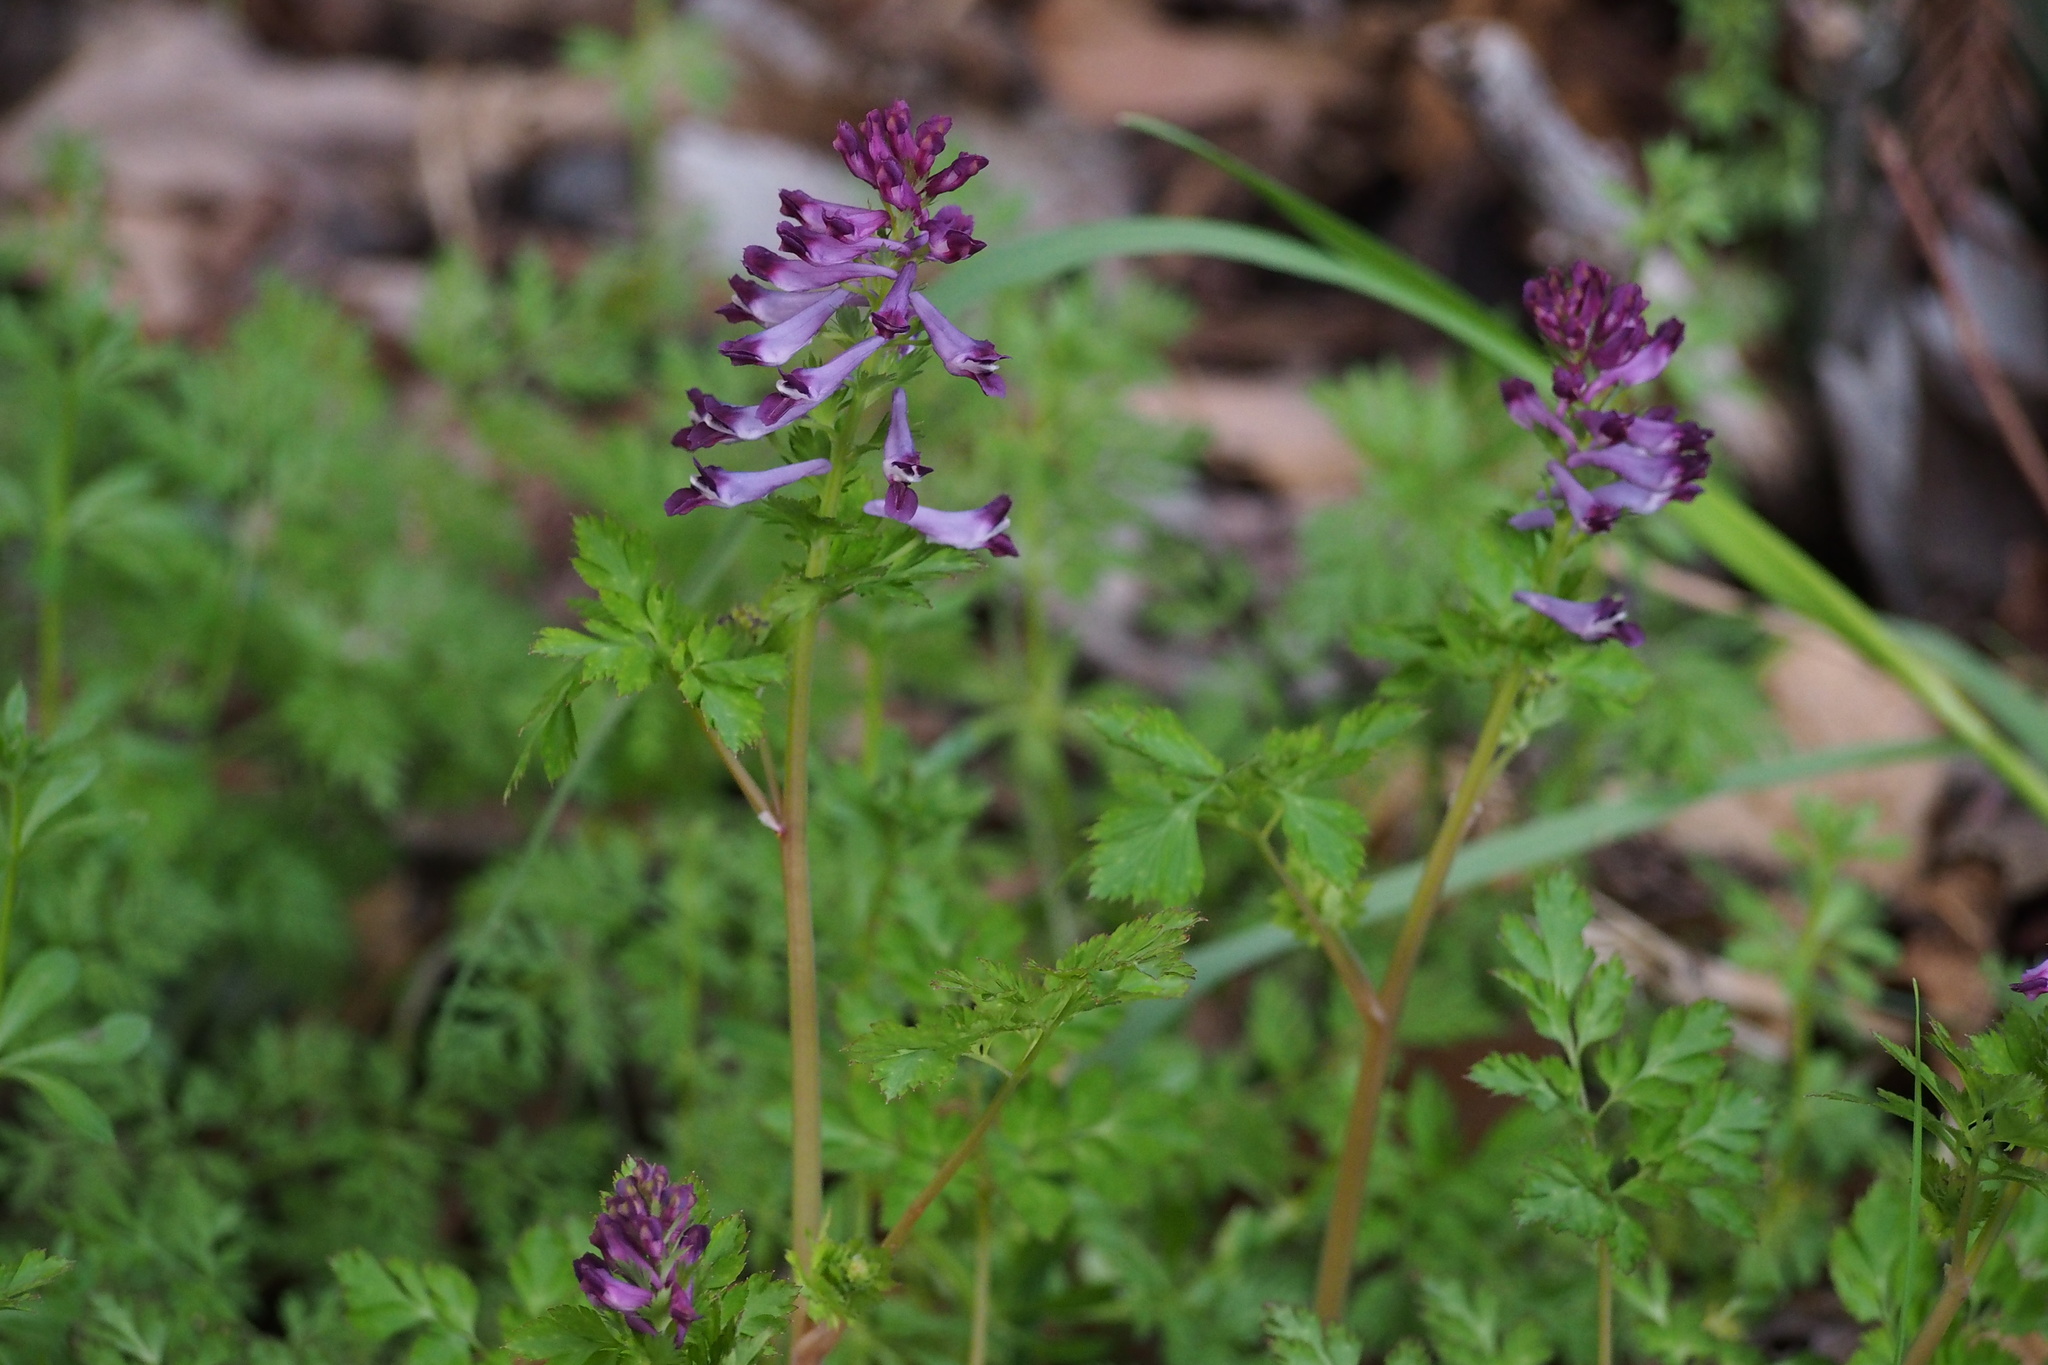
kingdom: Plantae
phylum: Tracheophyta
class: Magnoliopsida
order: Ranunculales
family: Papaveraceae
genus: Corydalis
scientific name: Corydalis incisa
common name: Incised fumewort
